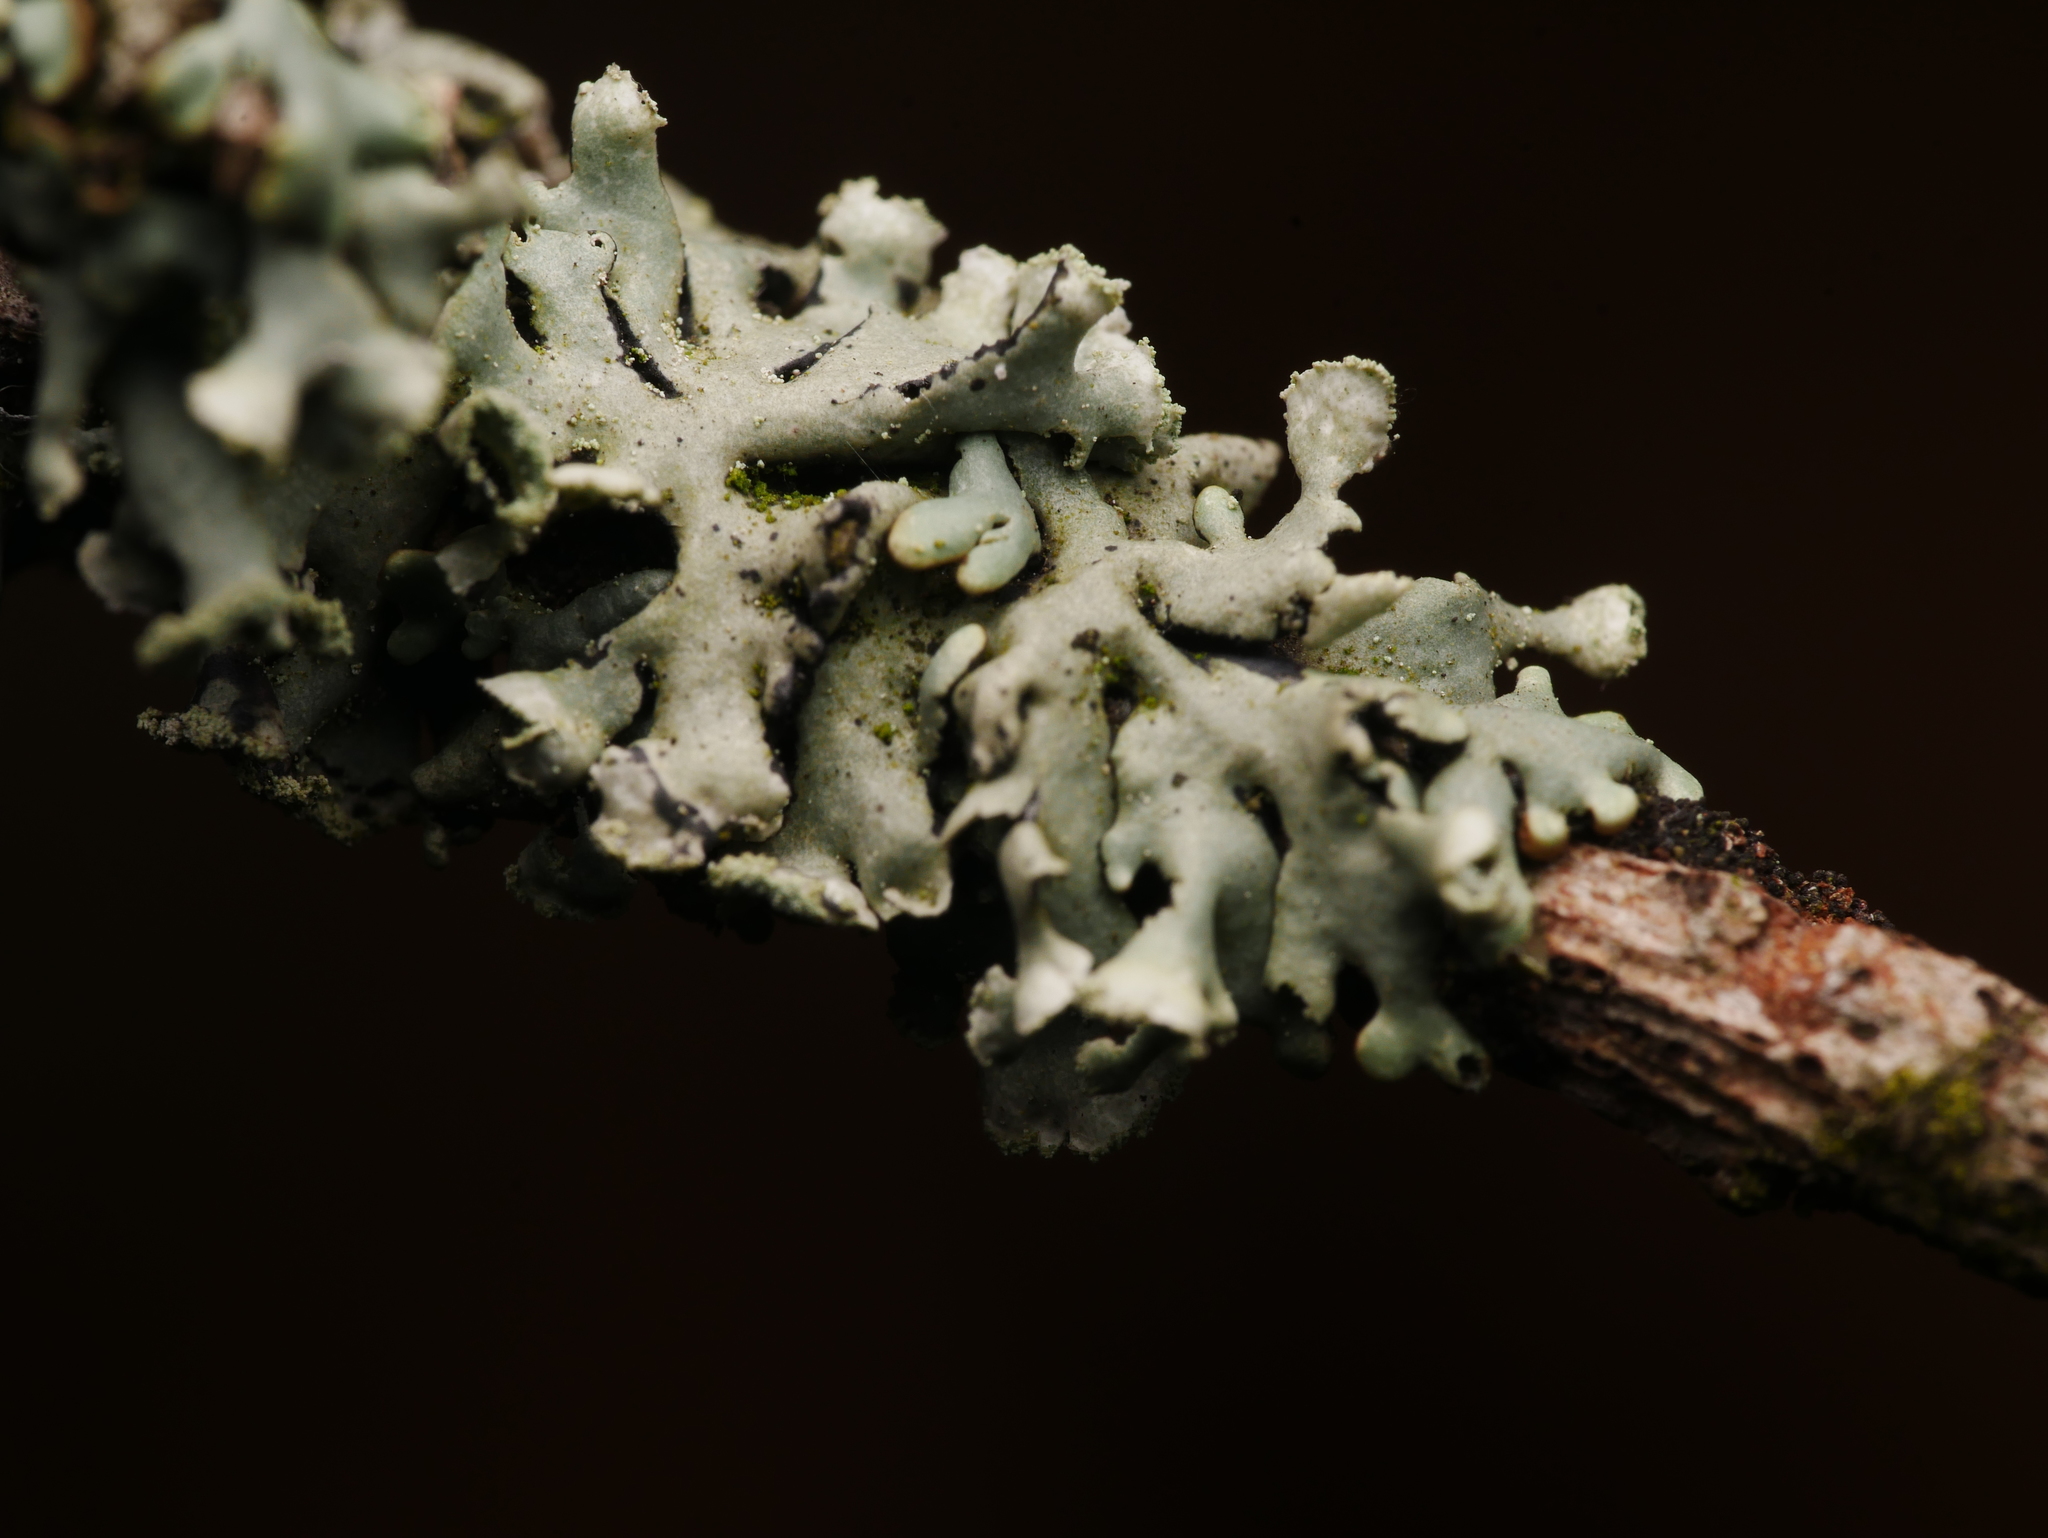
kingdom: Fungi
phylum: Ascomycota
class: Lecanoromycetes
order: Lecanorales
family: Parmeliaceae
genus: Hypogymnia
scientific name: Hypogymnia physodes
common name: Dark crottle
